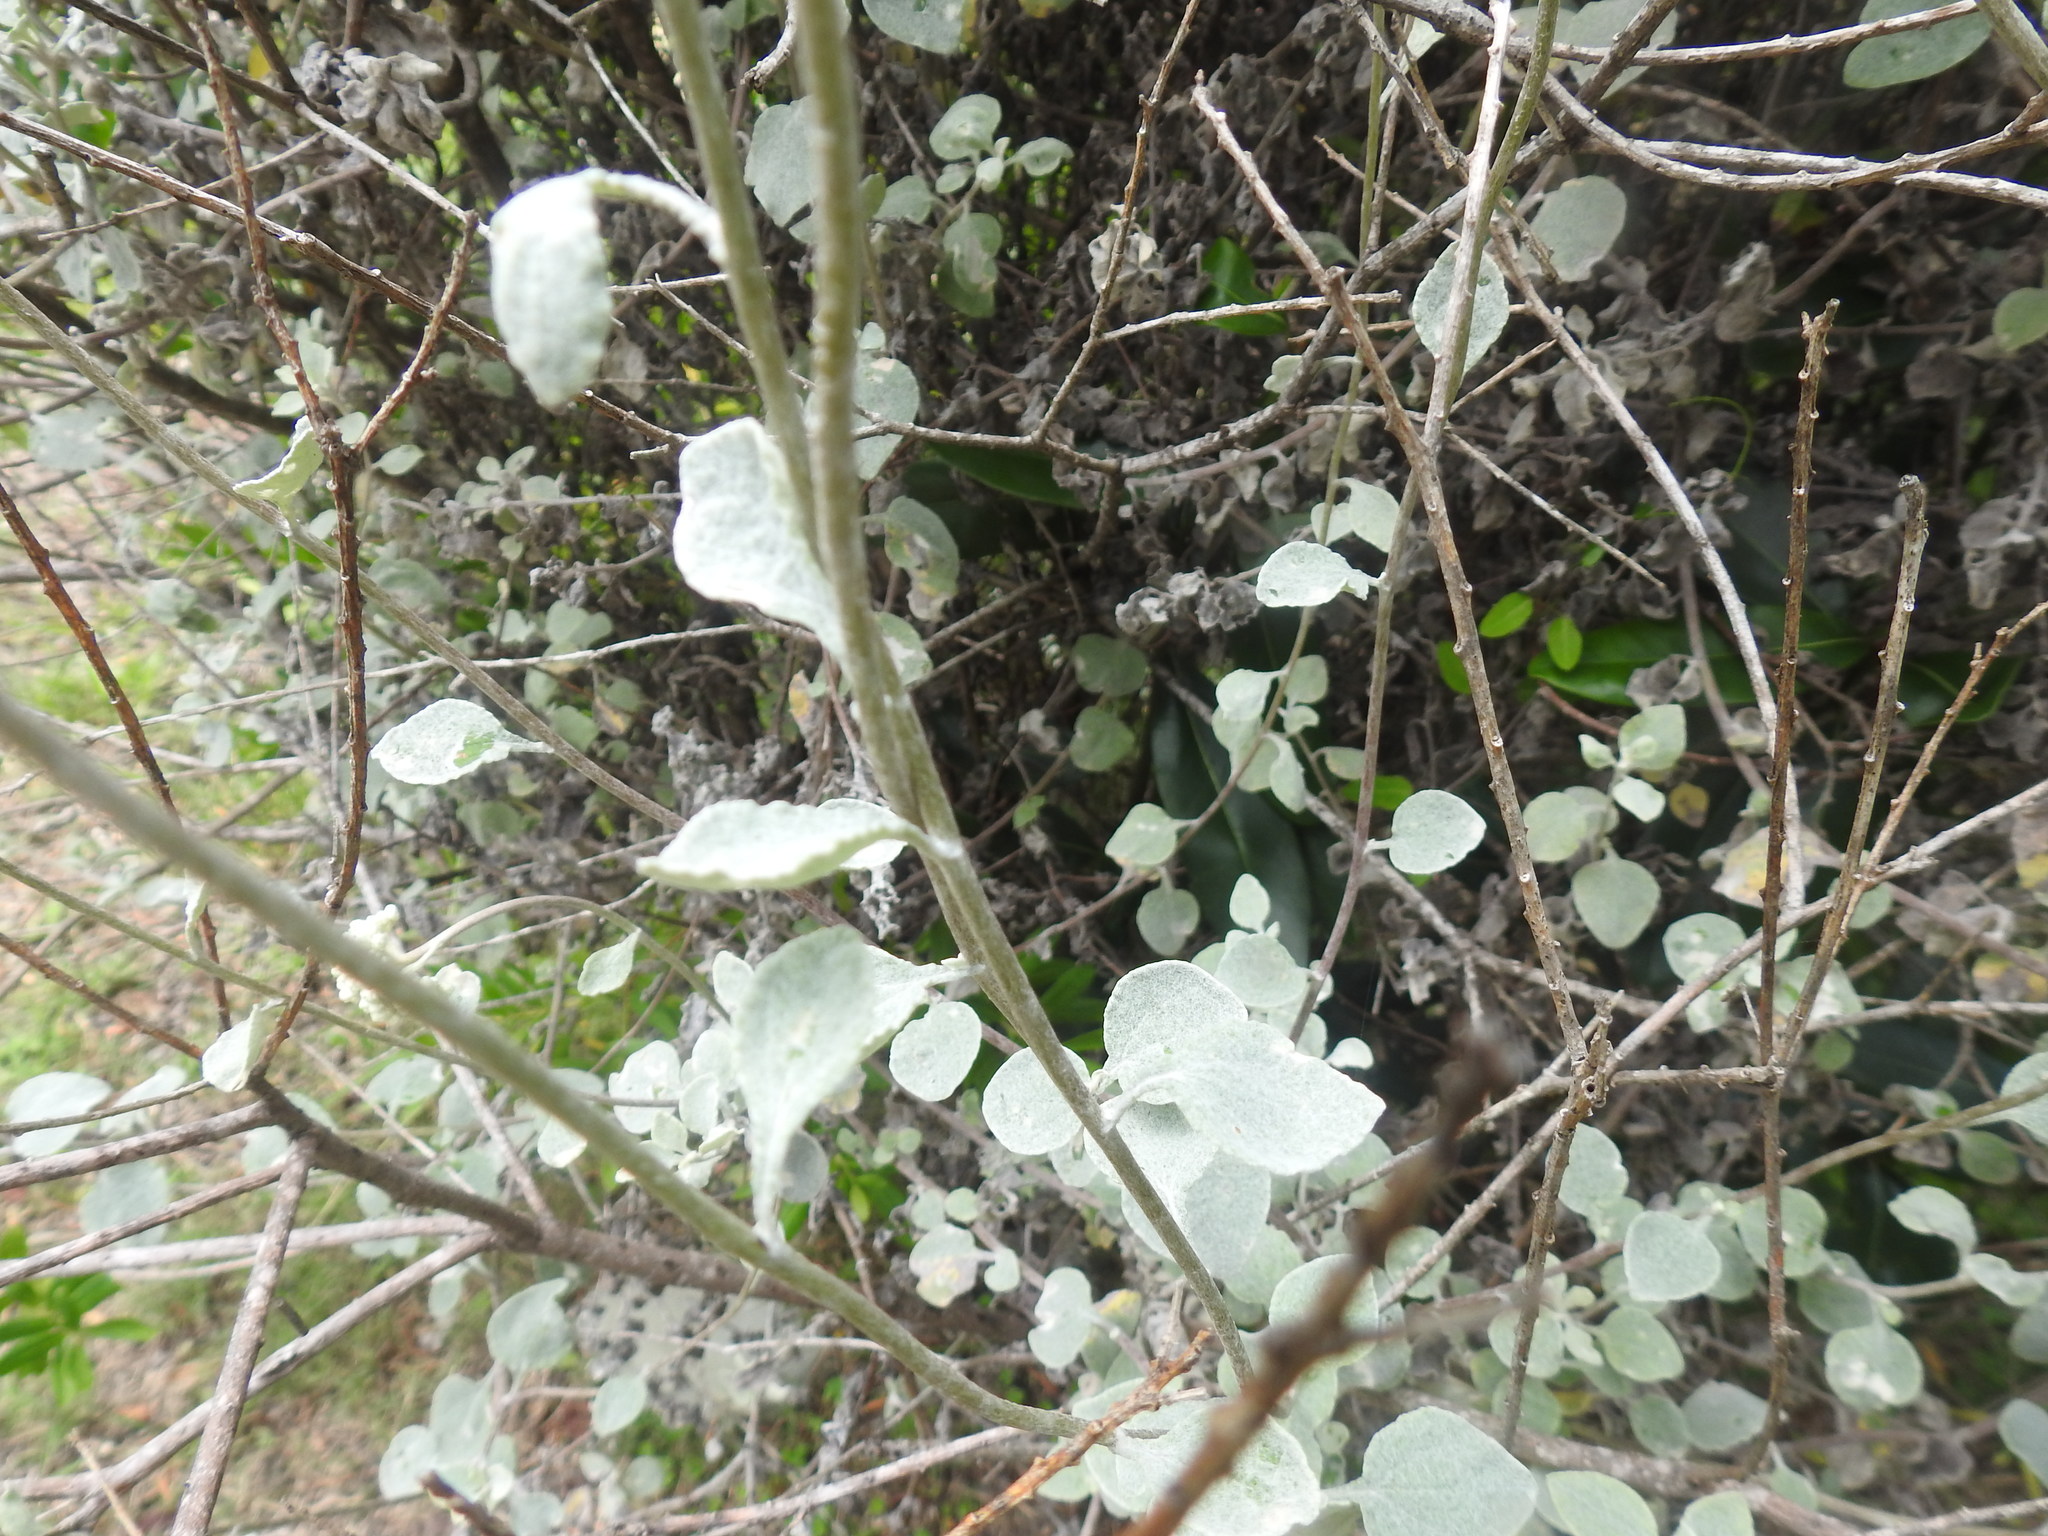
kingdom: Plantae
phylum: Tracheophyta
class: Magnoliopsida
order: Asterales
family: Asteraceae
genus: Helichrysum
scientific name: Helichrysum petiolare
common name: Licorice-plant
